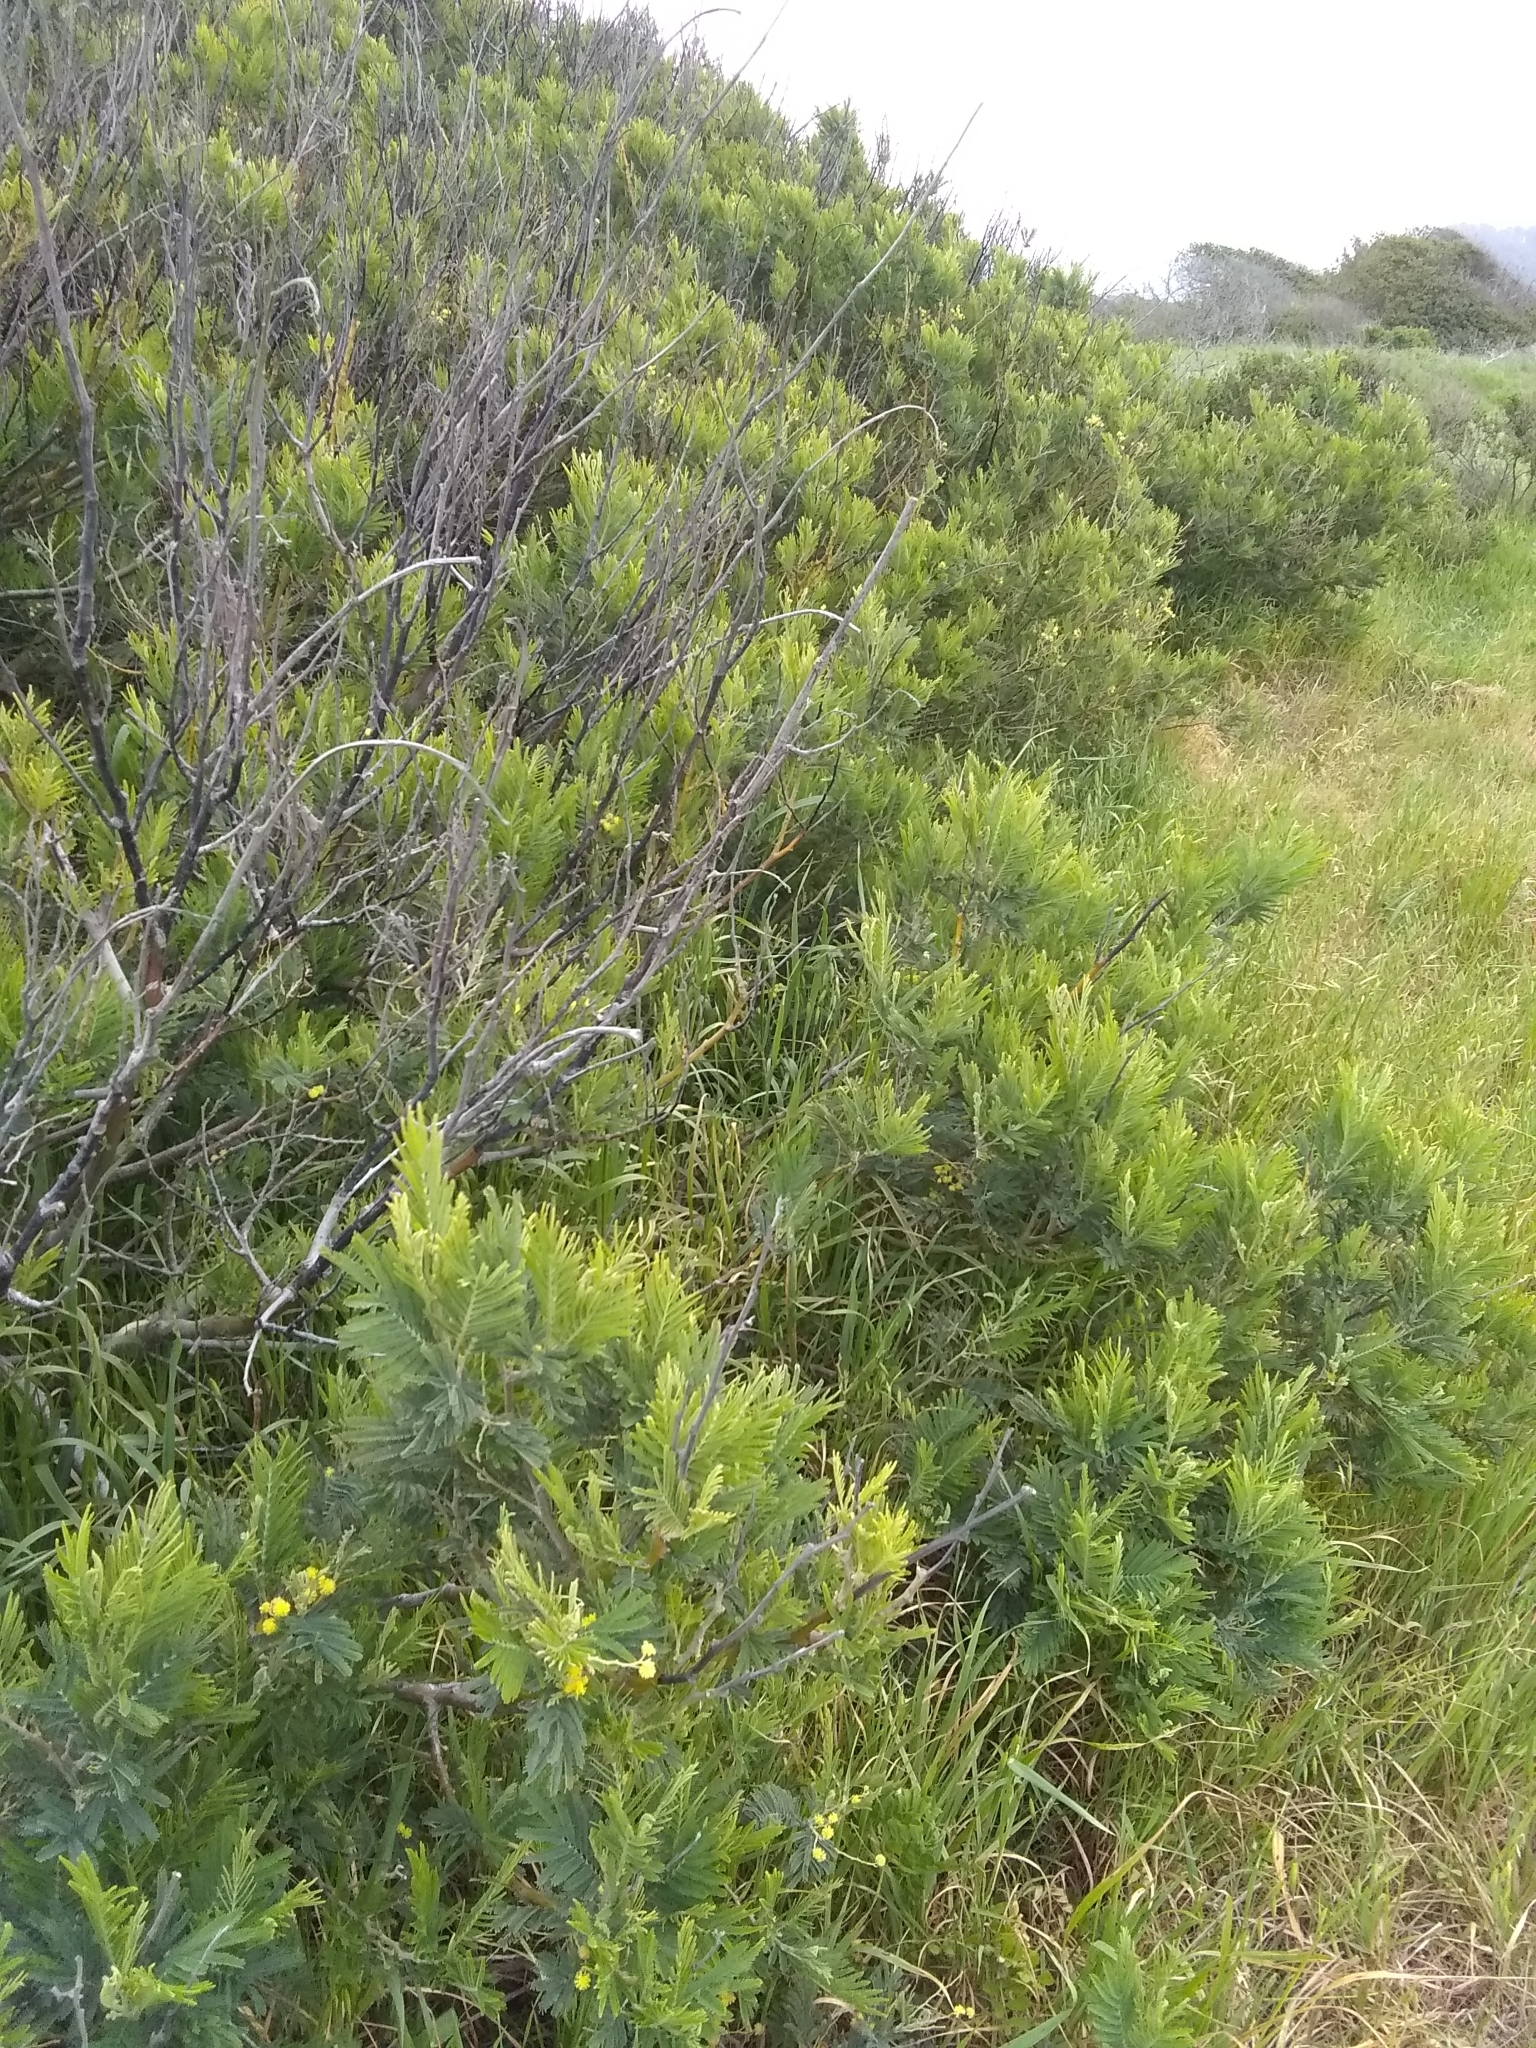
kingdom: Plantae
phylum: Tracheophyta
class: Magnoliopsida
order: Fabales
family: Fabaceae
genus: Acacia
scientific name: Acacia dealbata
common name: Silver wattle
